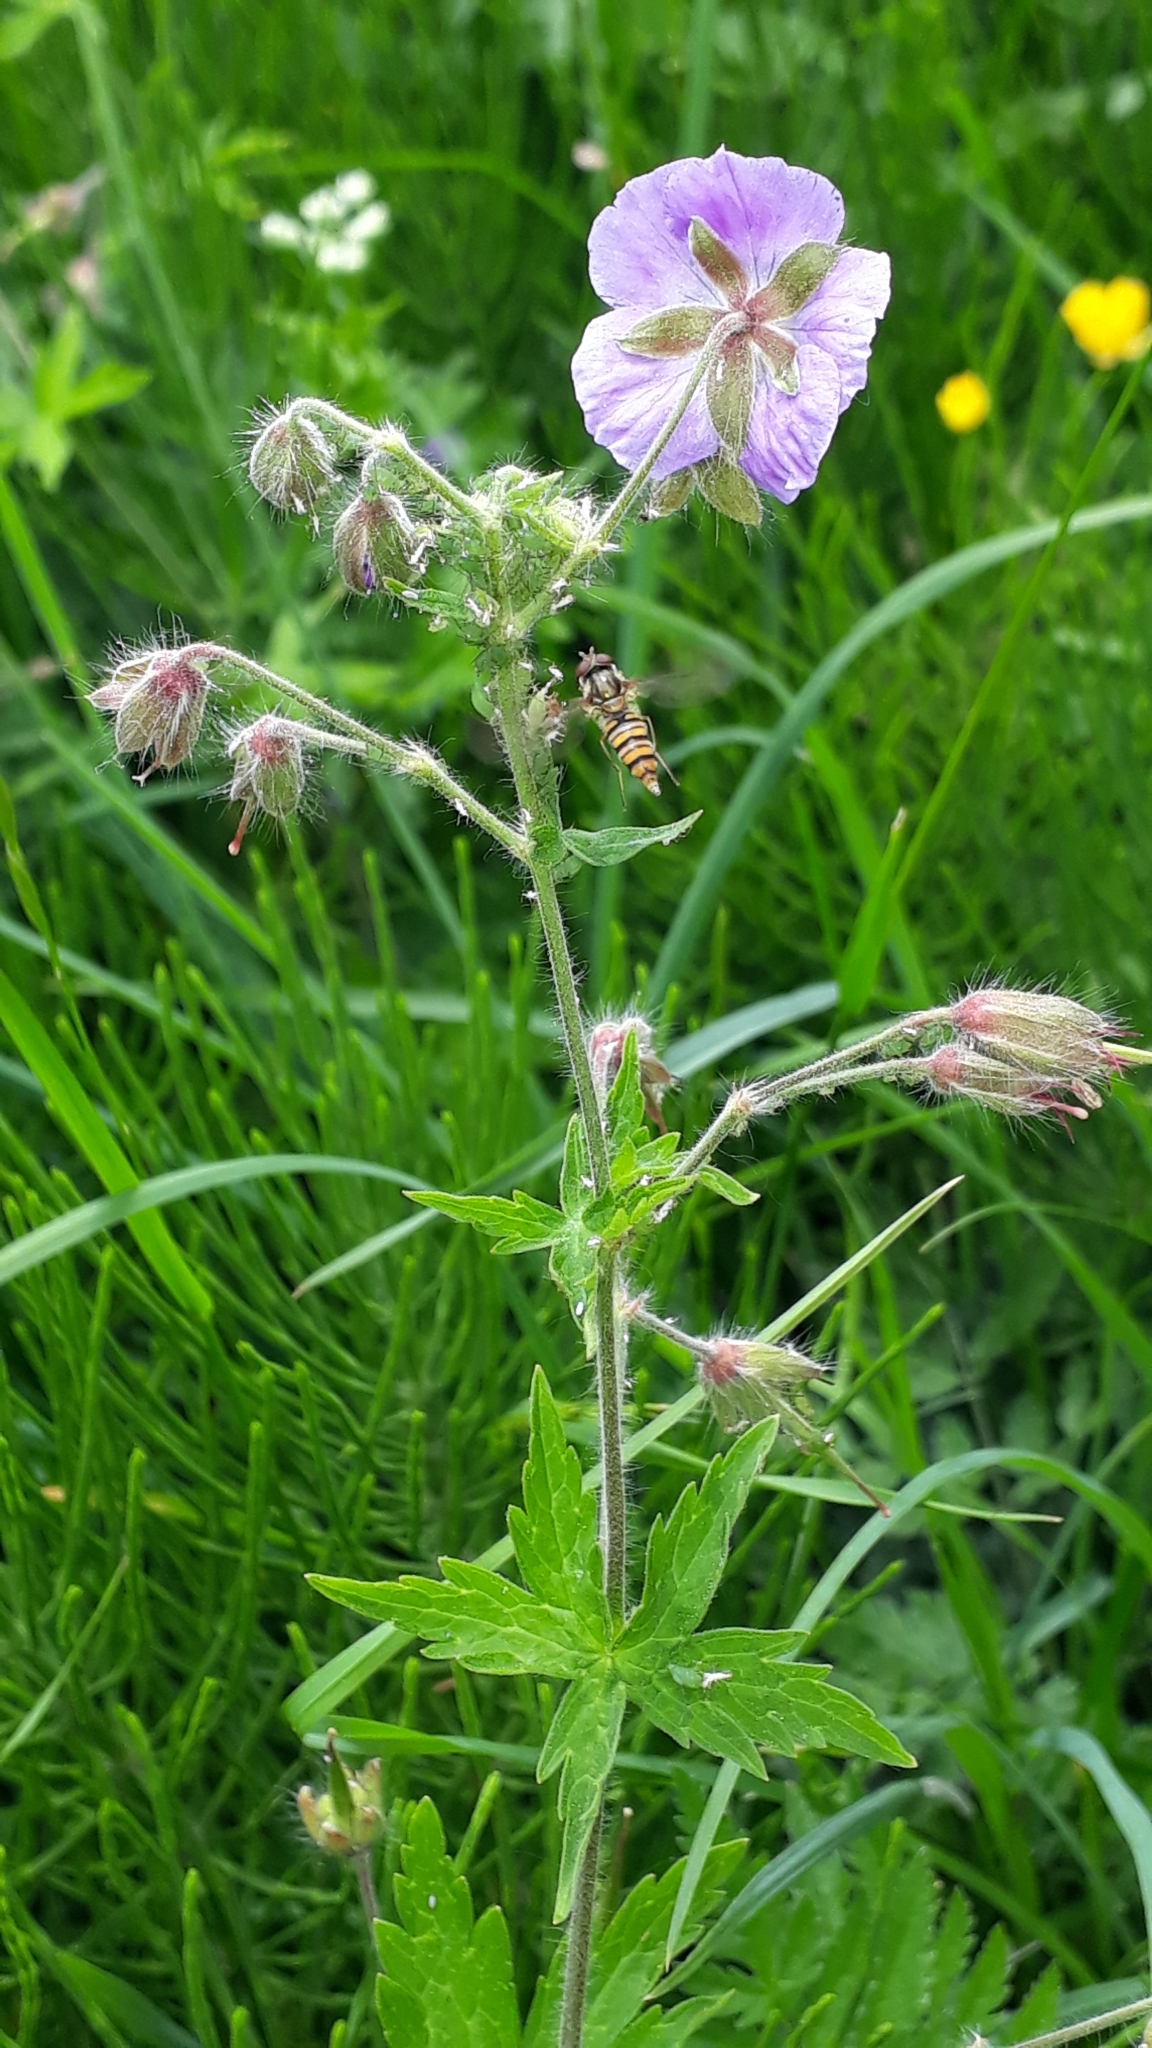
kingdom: Plantae
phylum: Tracheophyta
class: Magnoliopsida
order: Geraniales
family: Geraniaceae
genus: Geranium
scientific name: Geranium phaeum
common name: Dusky crane's-bill
